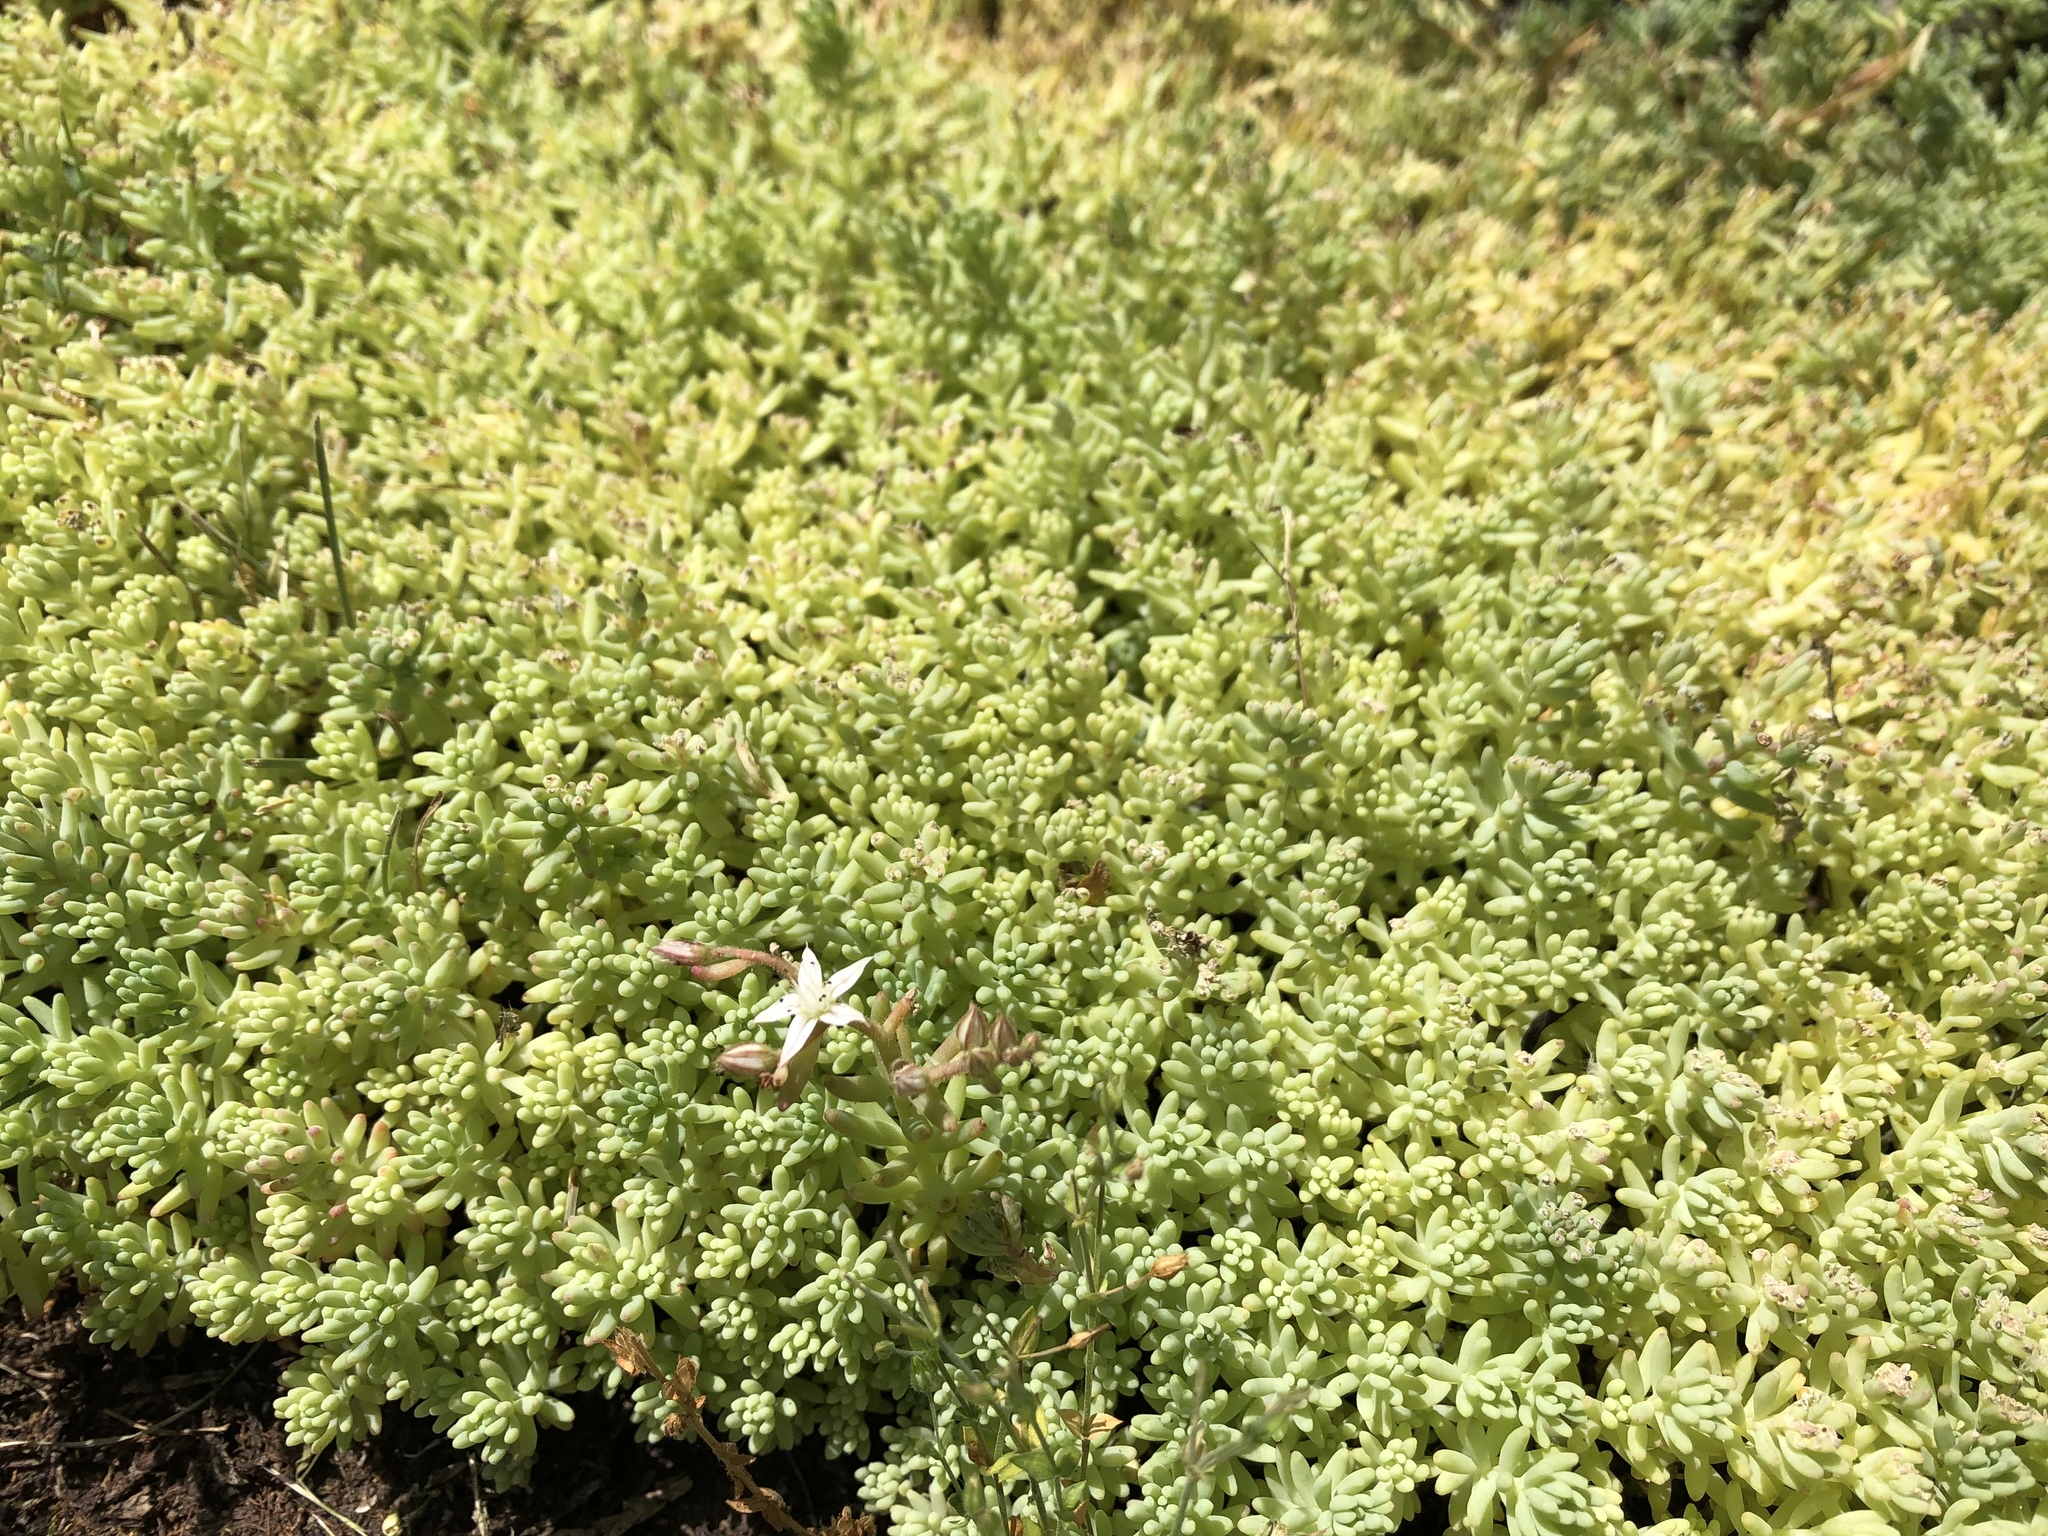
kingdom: Plantae
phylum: Tracheophyta
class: Magnoliopsida
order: Saxifragales
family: Crassulaceae
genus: Sedum
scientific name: Sedum pallidum
